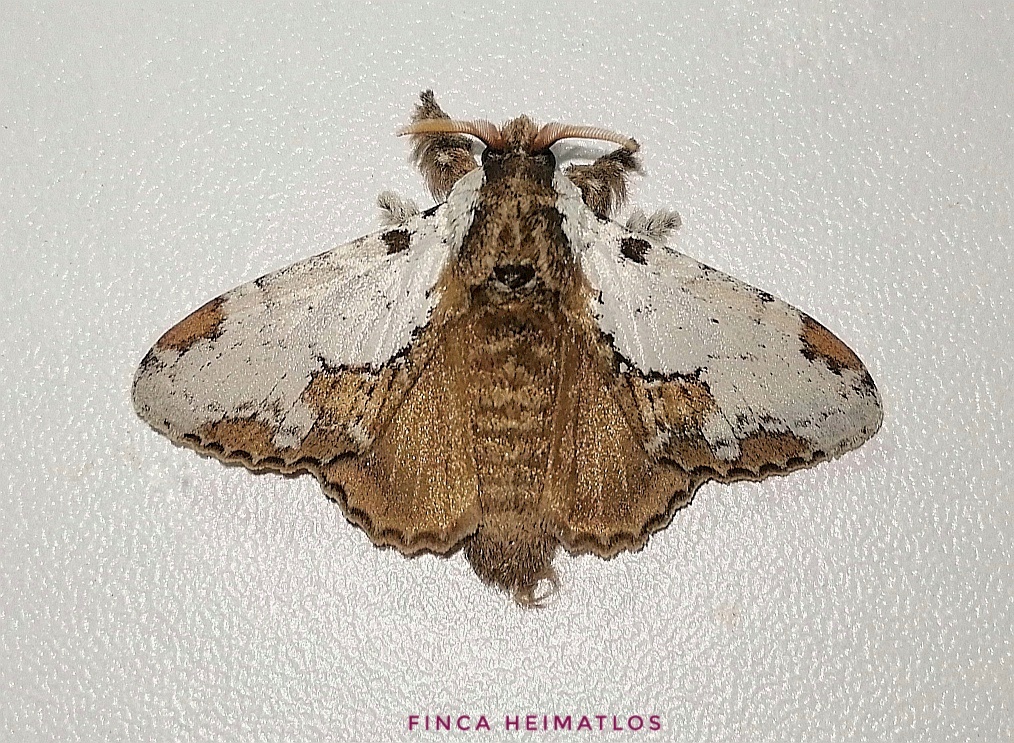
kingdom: Animalia
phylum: Arthropoda
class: Insecta
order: Lepidoptera
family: Lasiocampidae
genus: Euglyphis
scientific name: Euglyphis braganza
